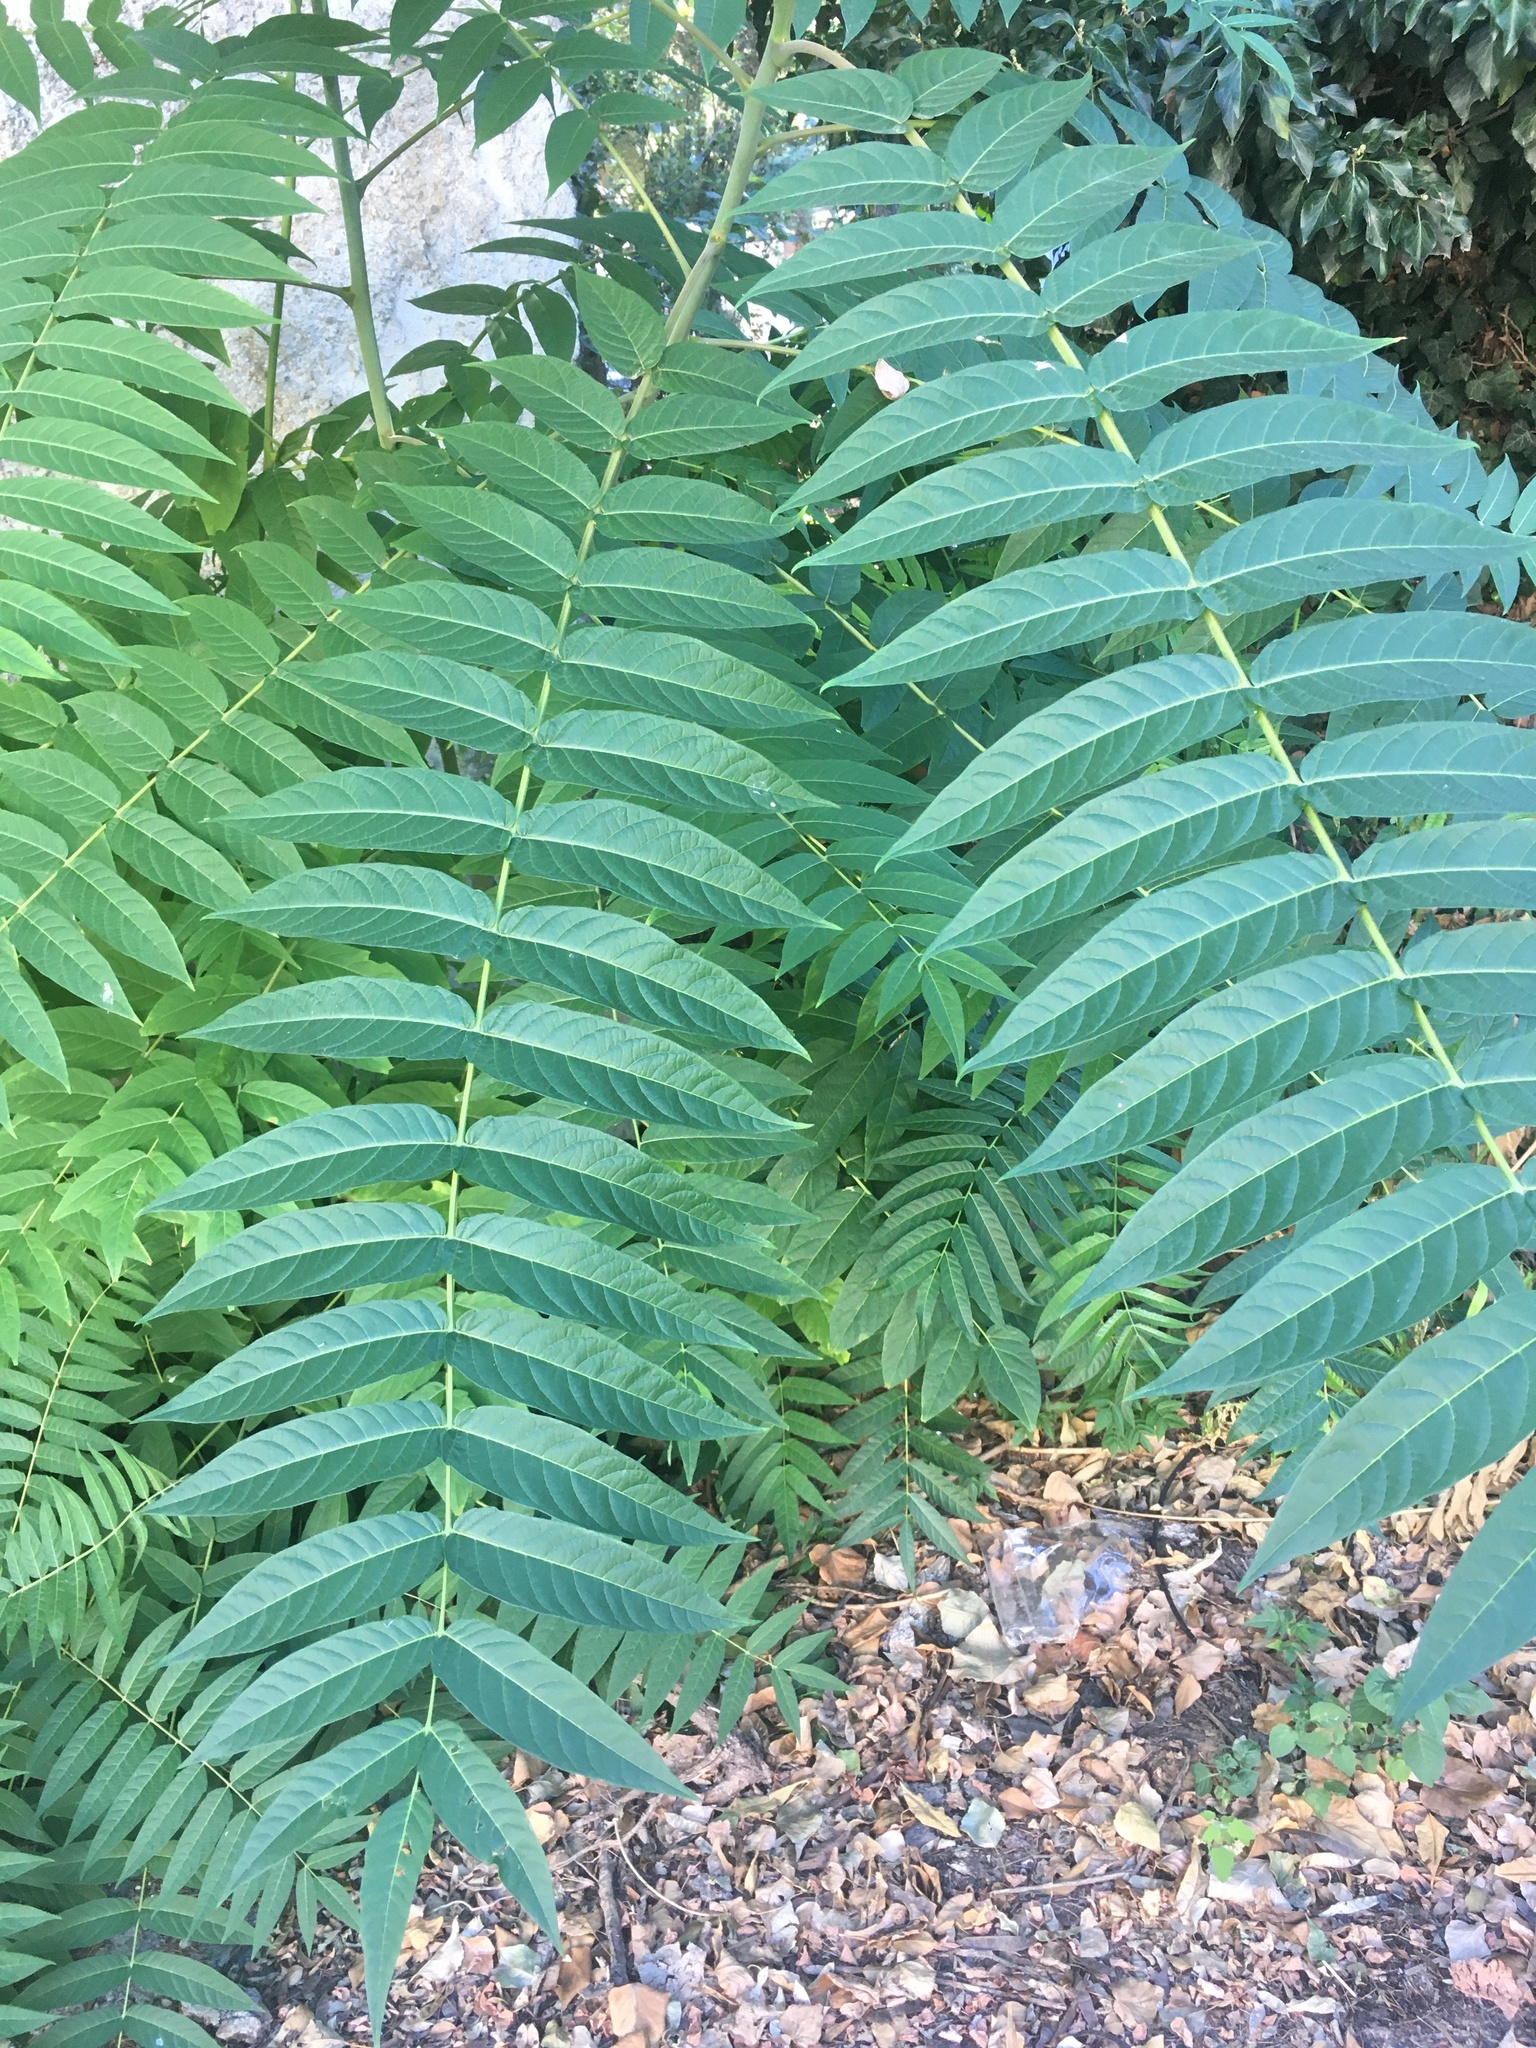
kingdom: Plantae
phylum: Tracheophyta
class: Magnoliopsida
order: Sapindales
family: Simaroubaceae
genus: Ailanthus
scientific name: Ailanthus altissima
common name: Tree-of-heaven
